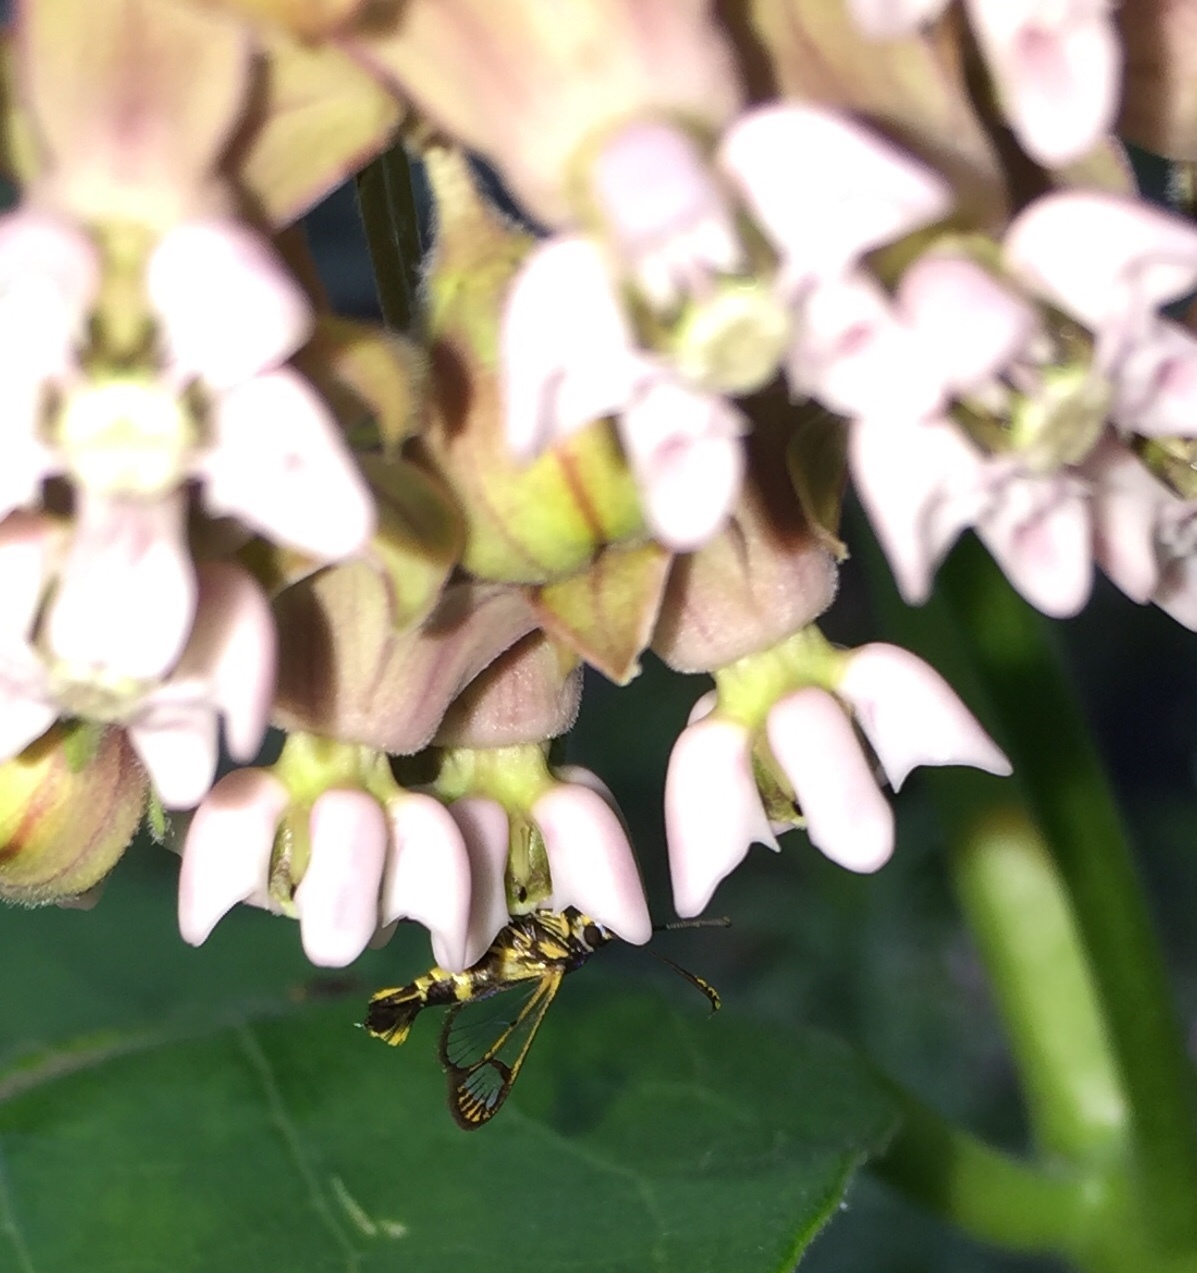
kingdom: Animalia
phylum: Arthropoda
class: Insecta
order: Lepidoptera
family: Sesiidae
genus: Synanthedon
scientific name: Synanthedon scitula
